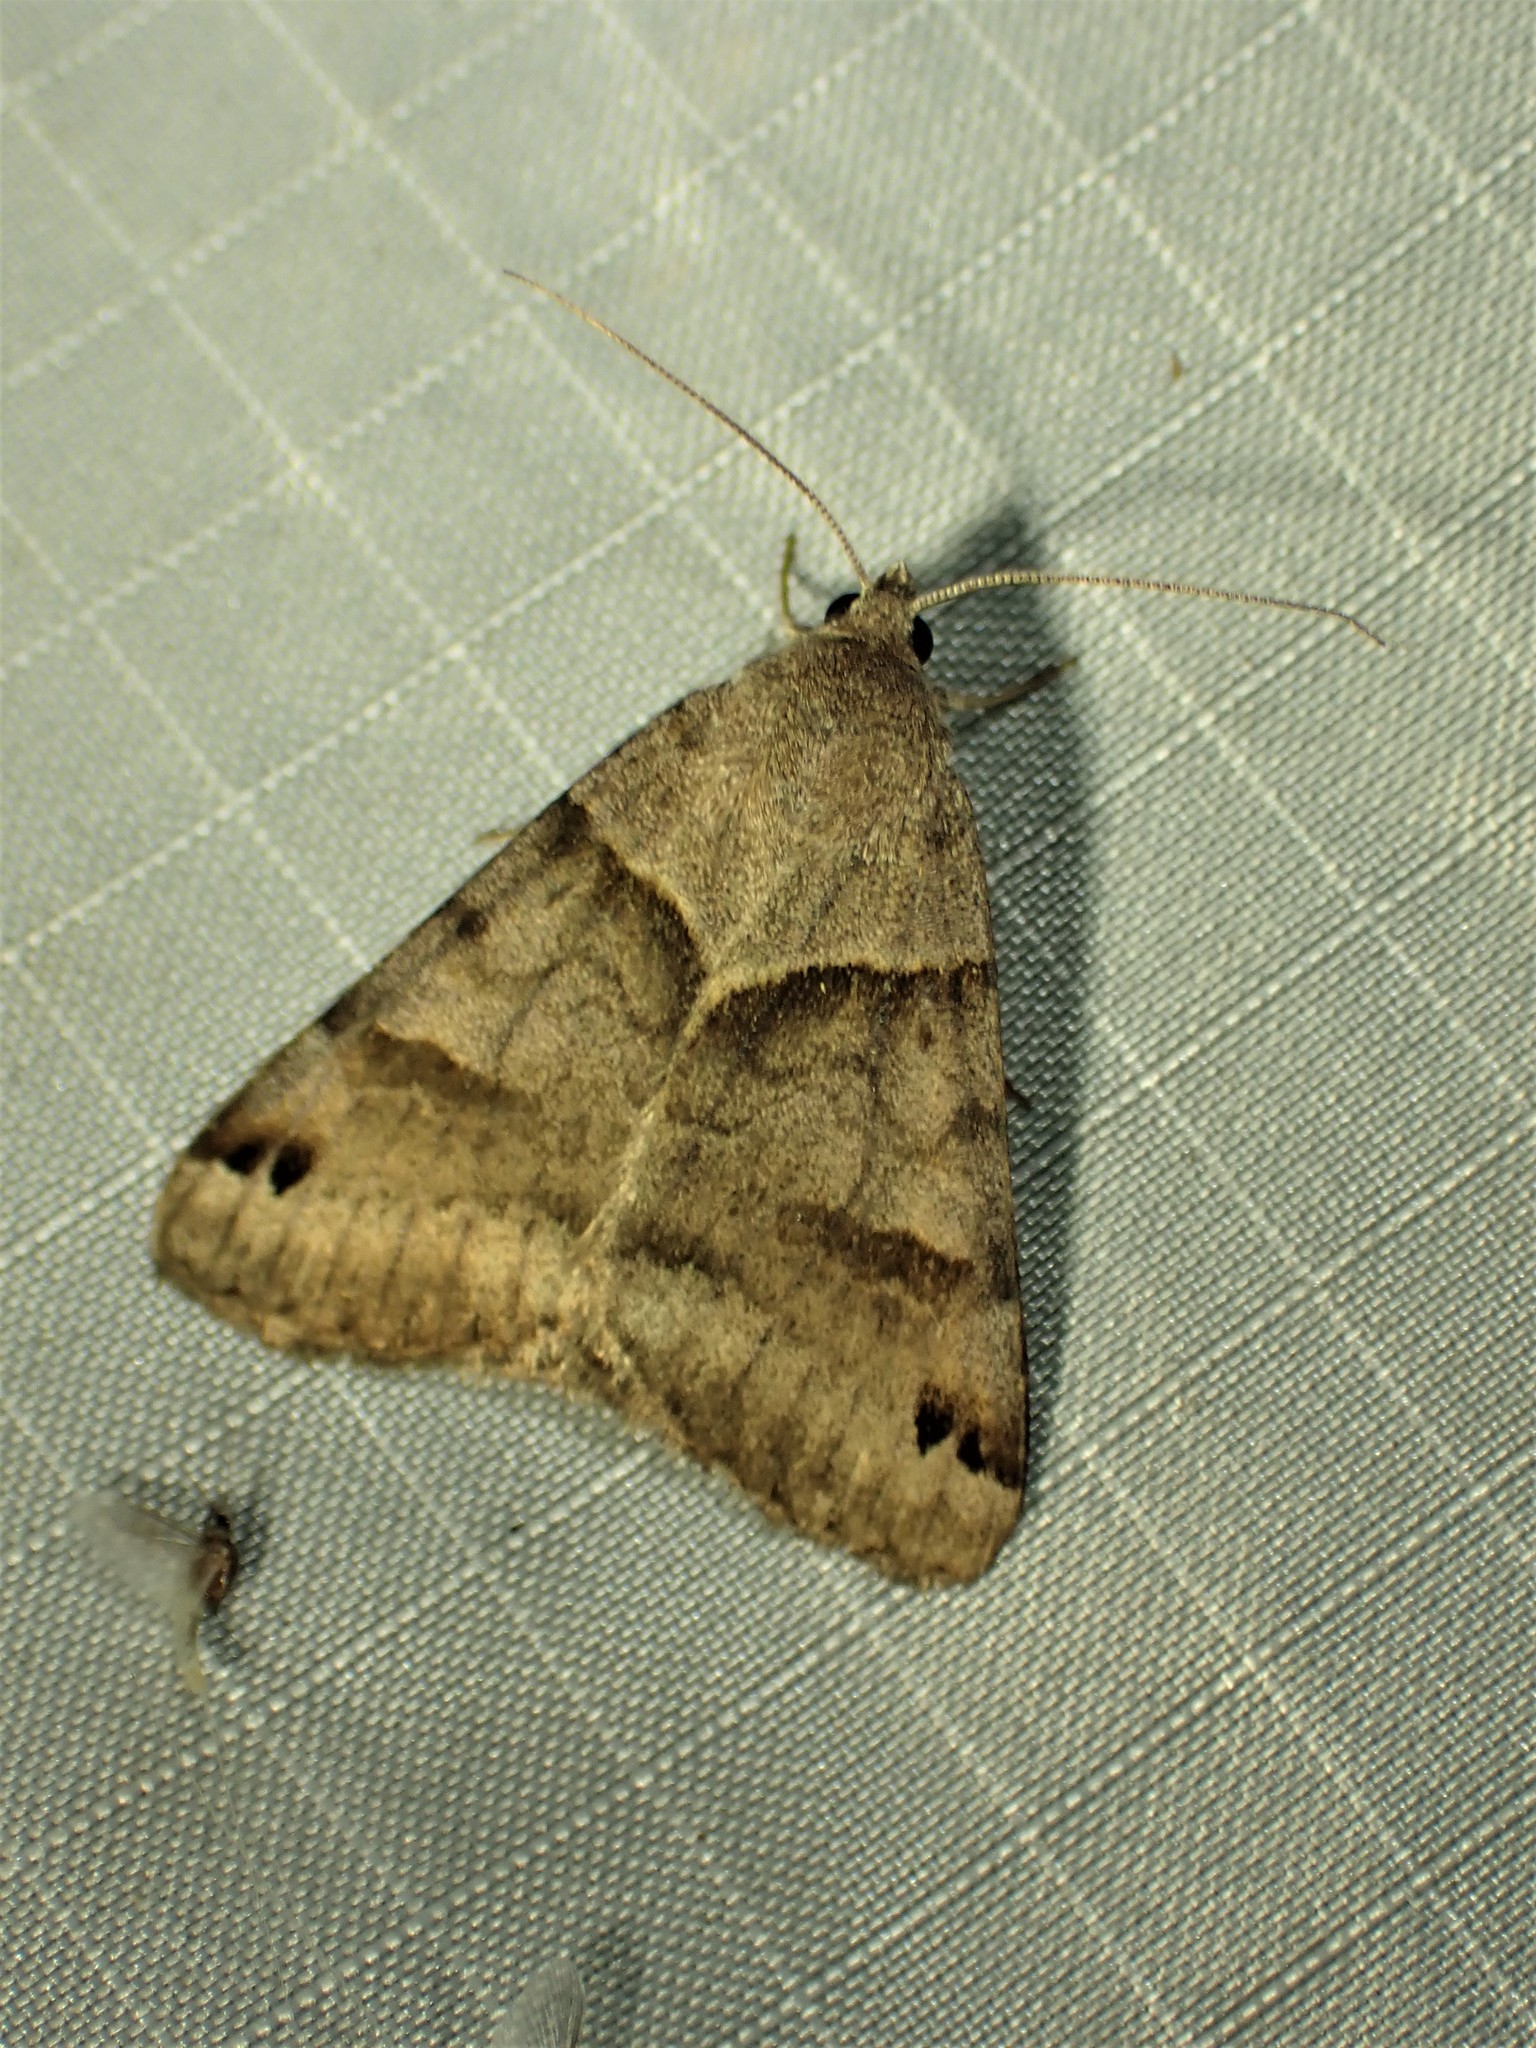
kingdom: Animalia
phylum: Arthropoda
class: Insecta
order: Lepidoptera
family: Erebidae
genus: Caenurgina
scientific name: Caenurgina crassiuscula
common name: Double-barred
